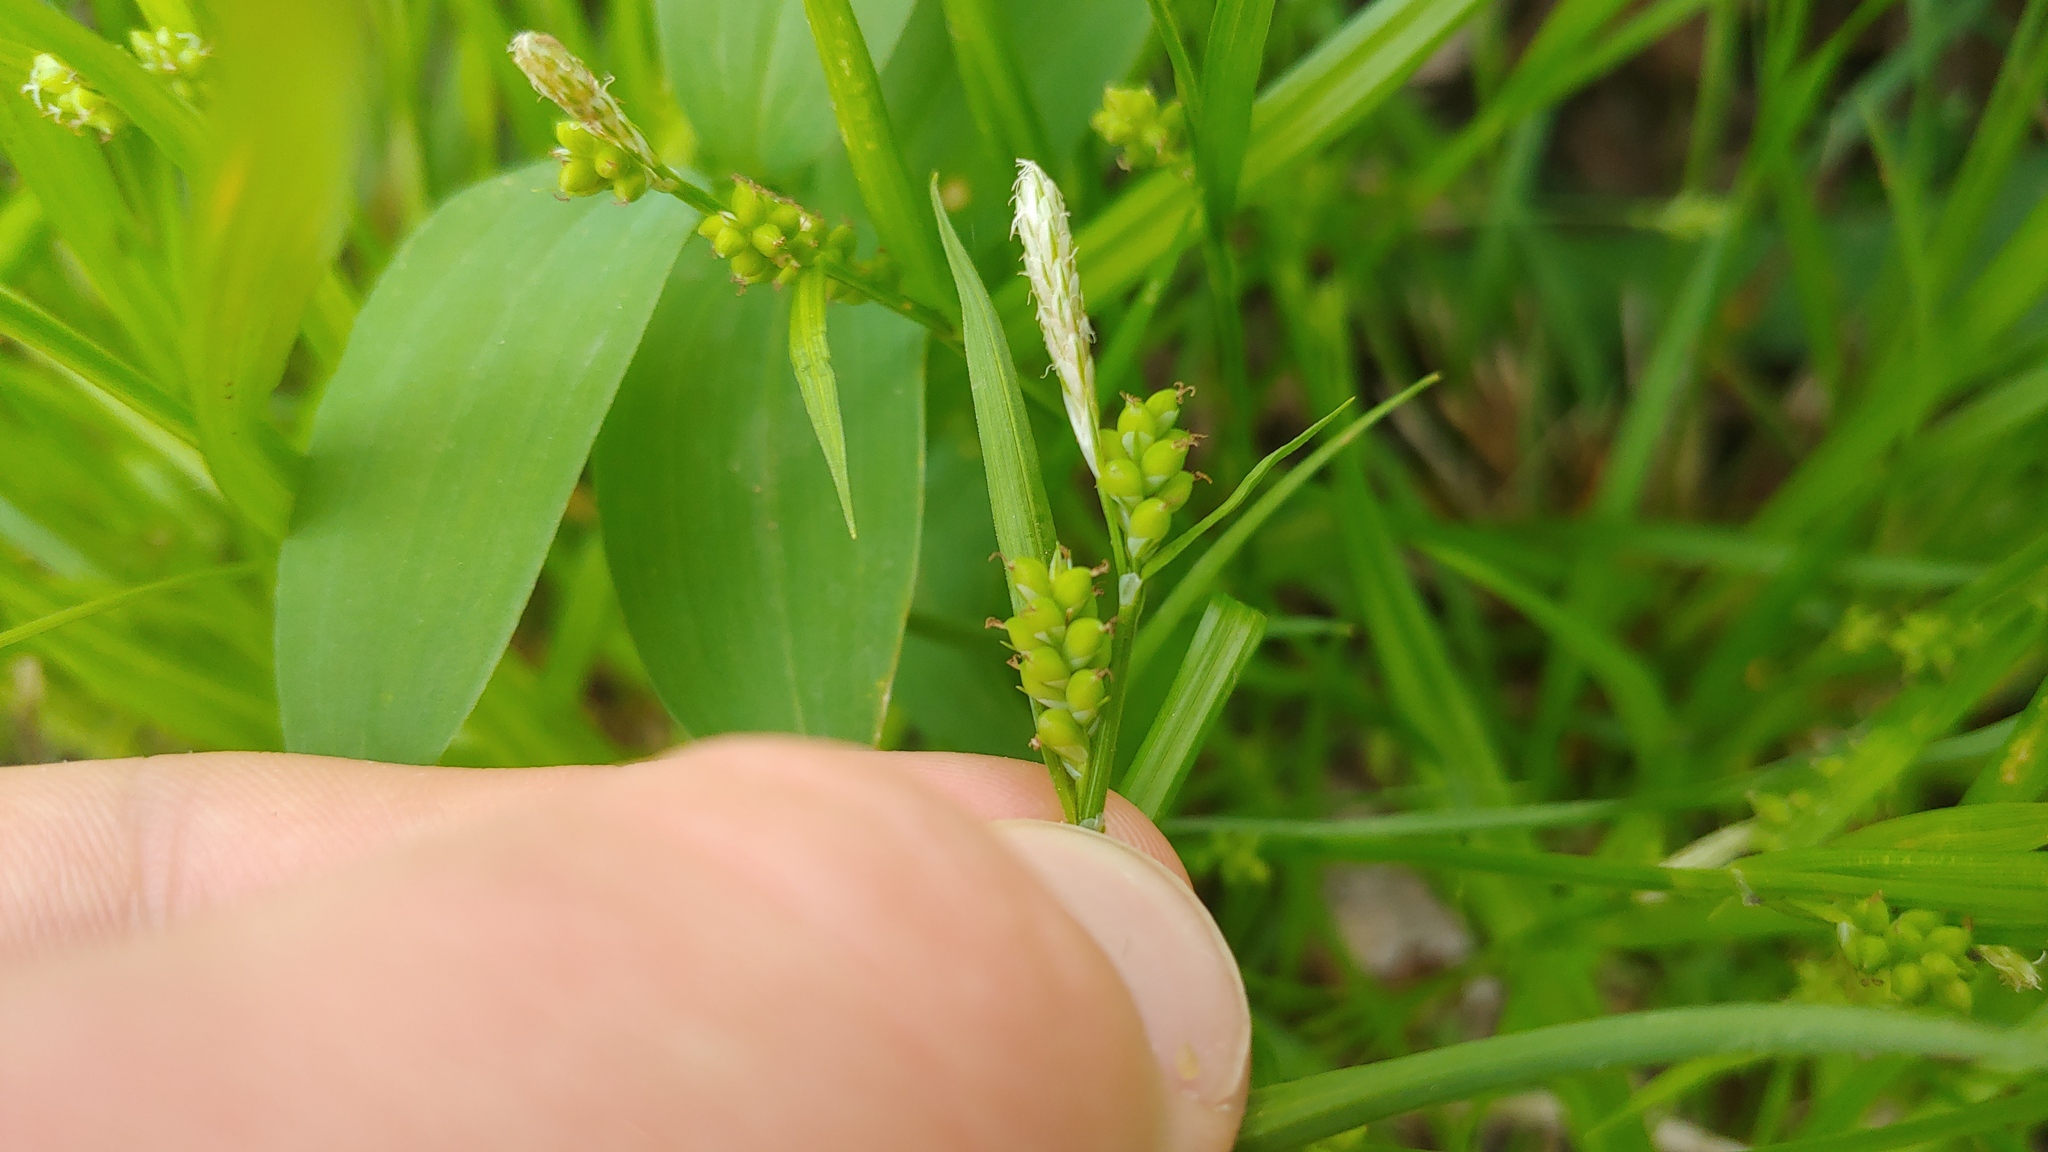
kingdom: Plantae
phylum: Tracheophyta
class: Liliopsida
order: Poales
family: Cyperaceae
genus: Carex
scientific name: Carex blanda
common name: Bland sedge
